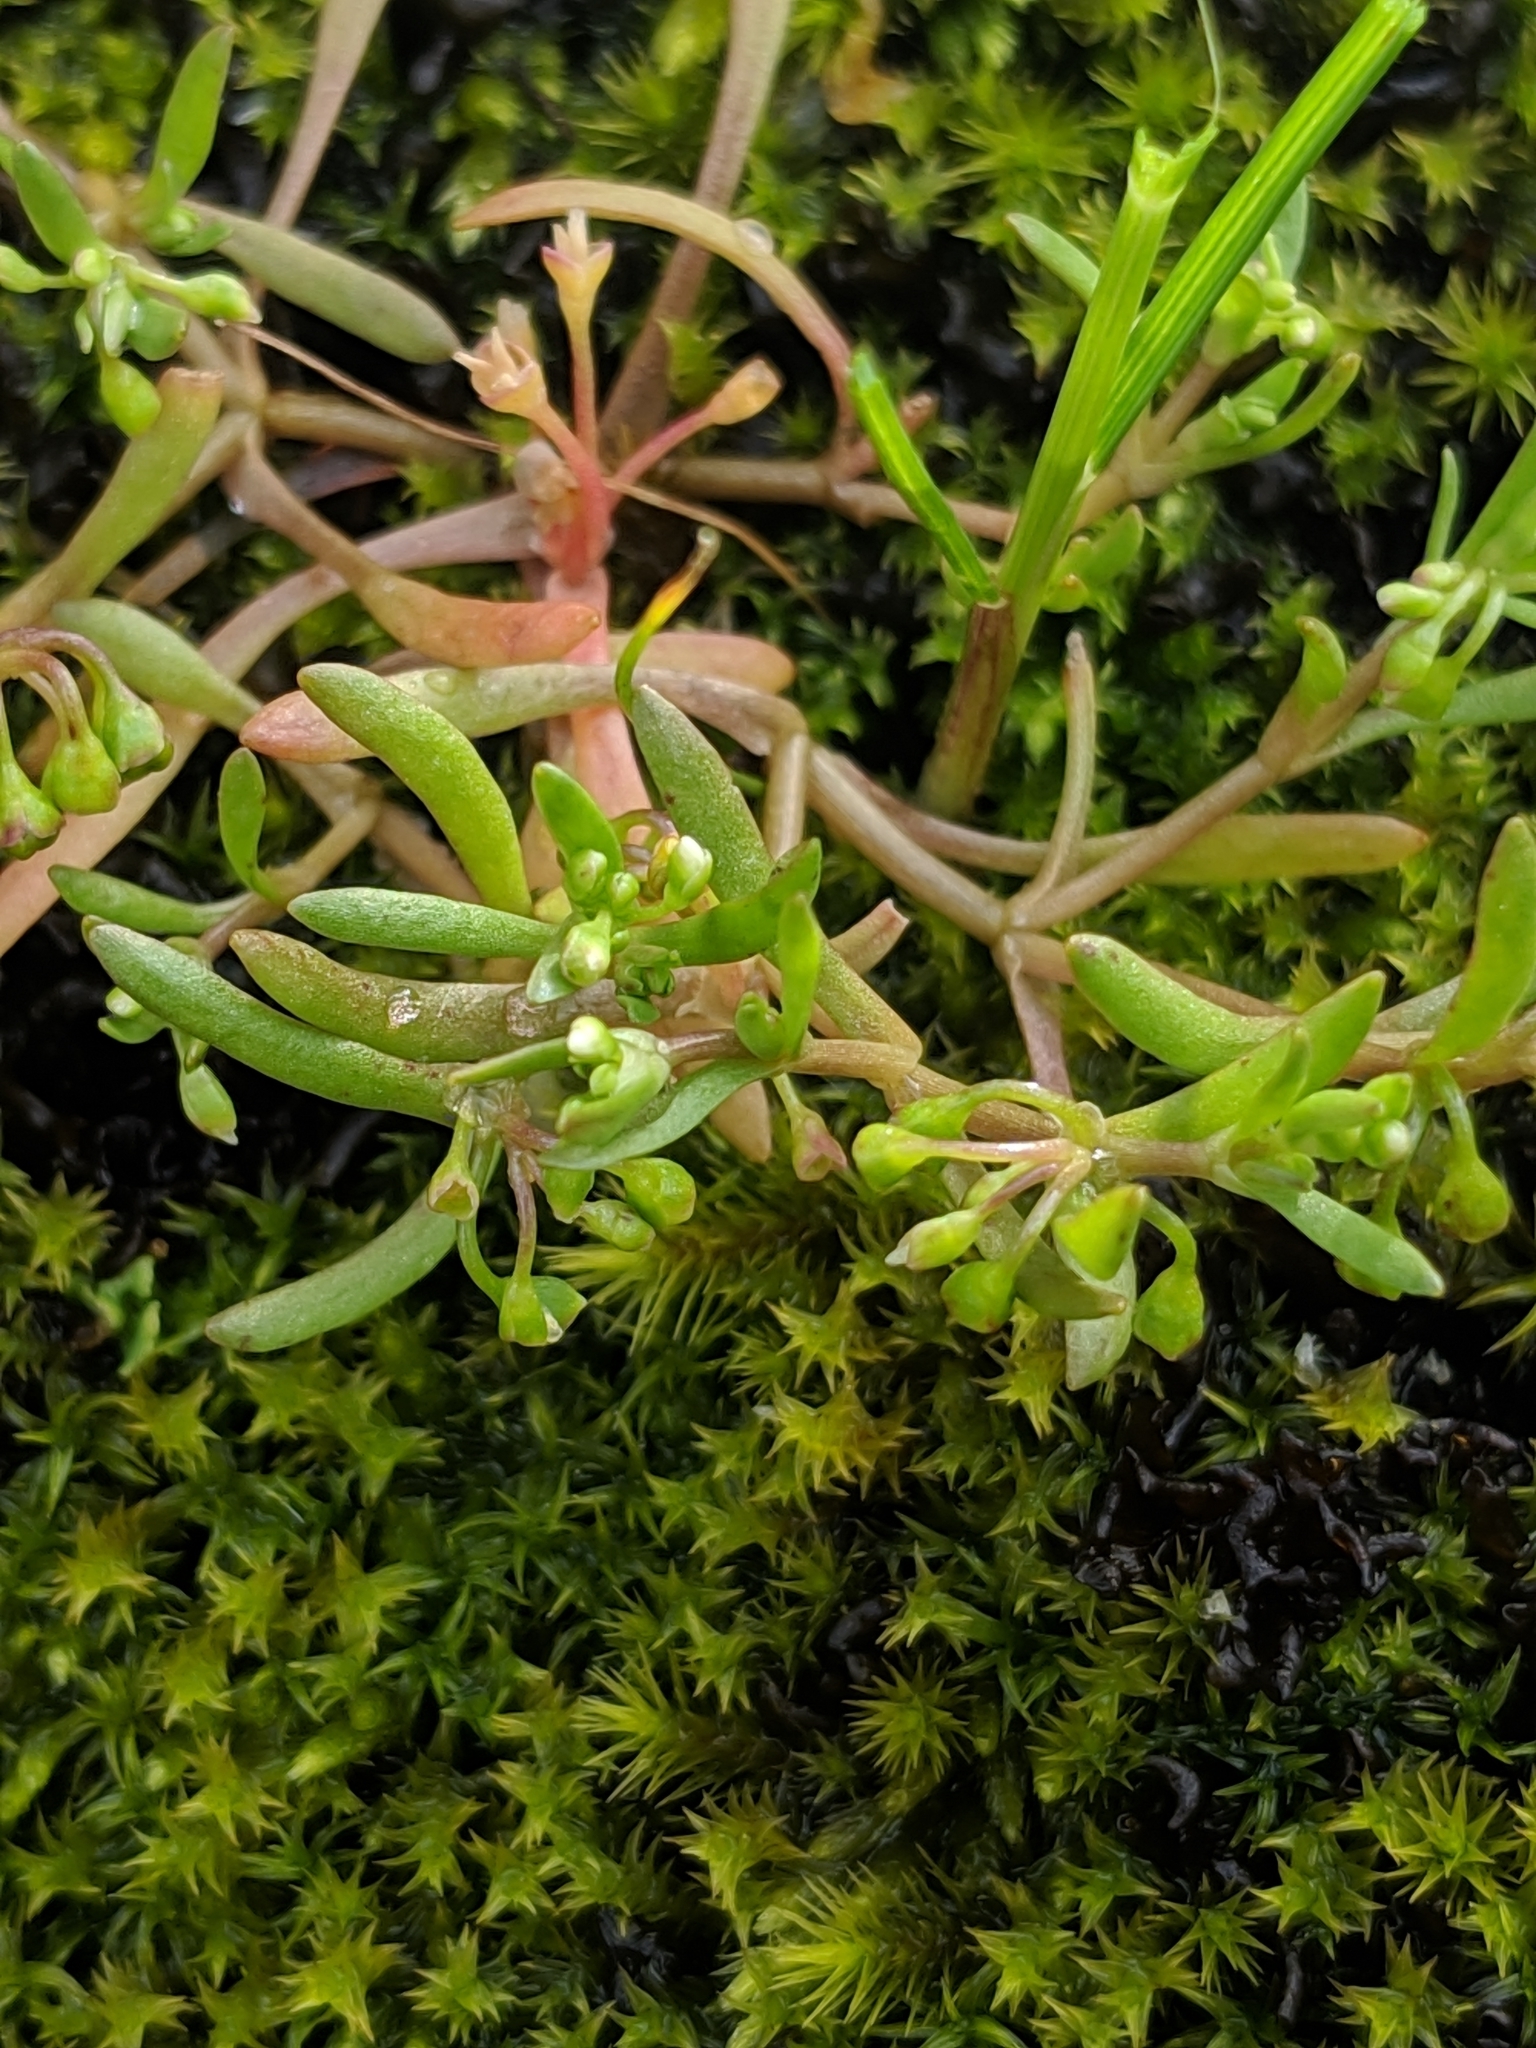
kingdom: Plantae
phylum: Tracheophyta
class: Magnoliopsida
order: Caryophyllales
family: Montiaceae
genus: Montia
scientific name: Montia fontana
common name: Blinks
